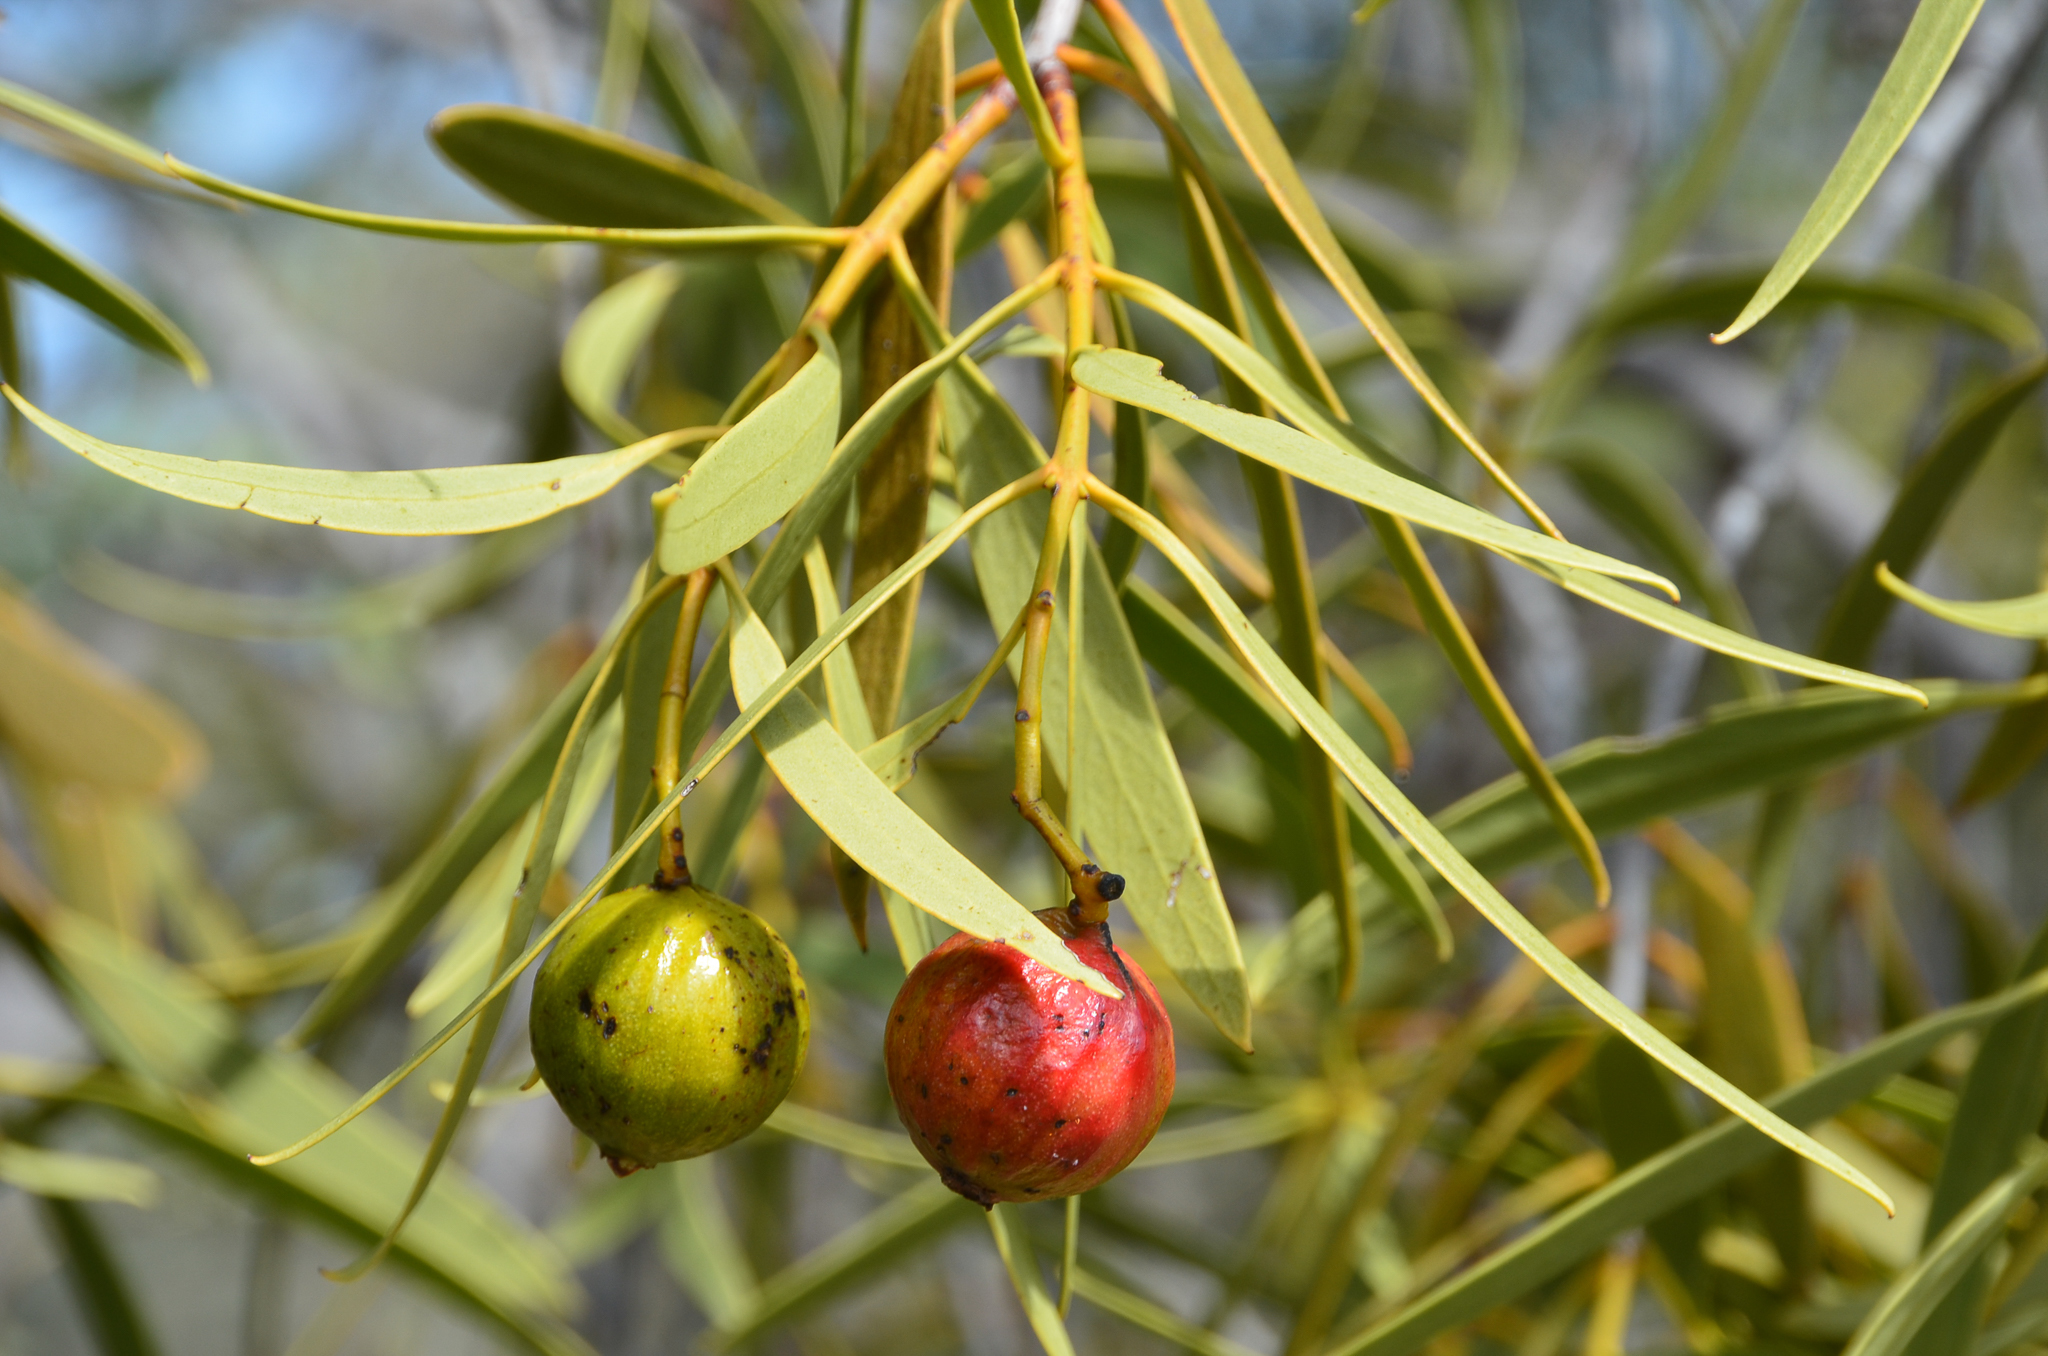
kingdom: Plantae
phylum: Tracheophyta
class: Magnoliopsida
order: Santalales
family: Santalaceae
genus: Santalum
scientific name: Santalum acuminatum
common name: Sweet quandong
